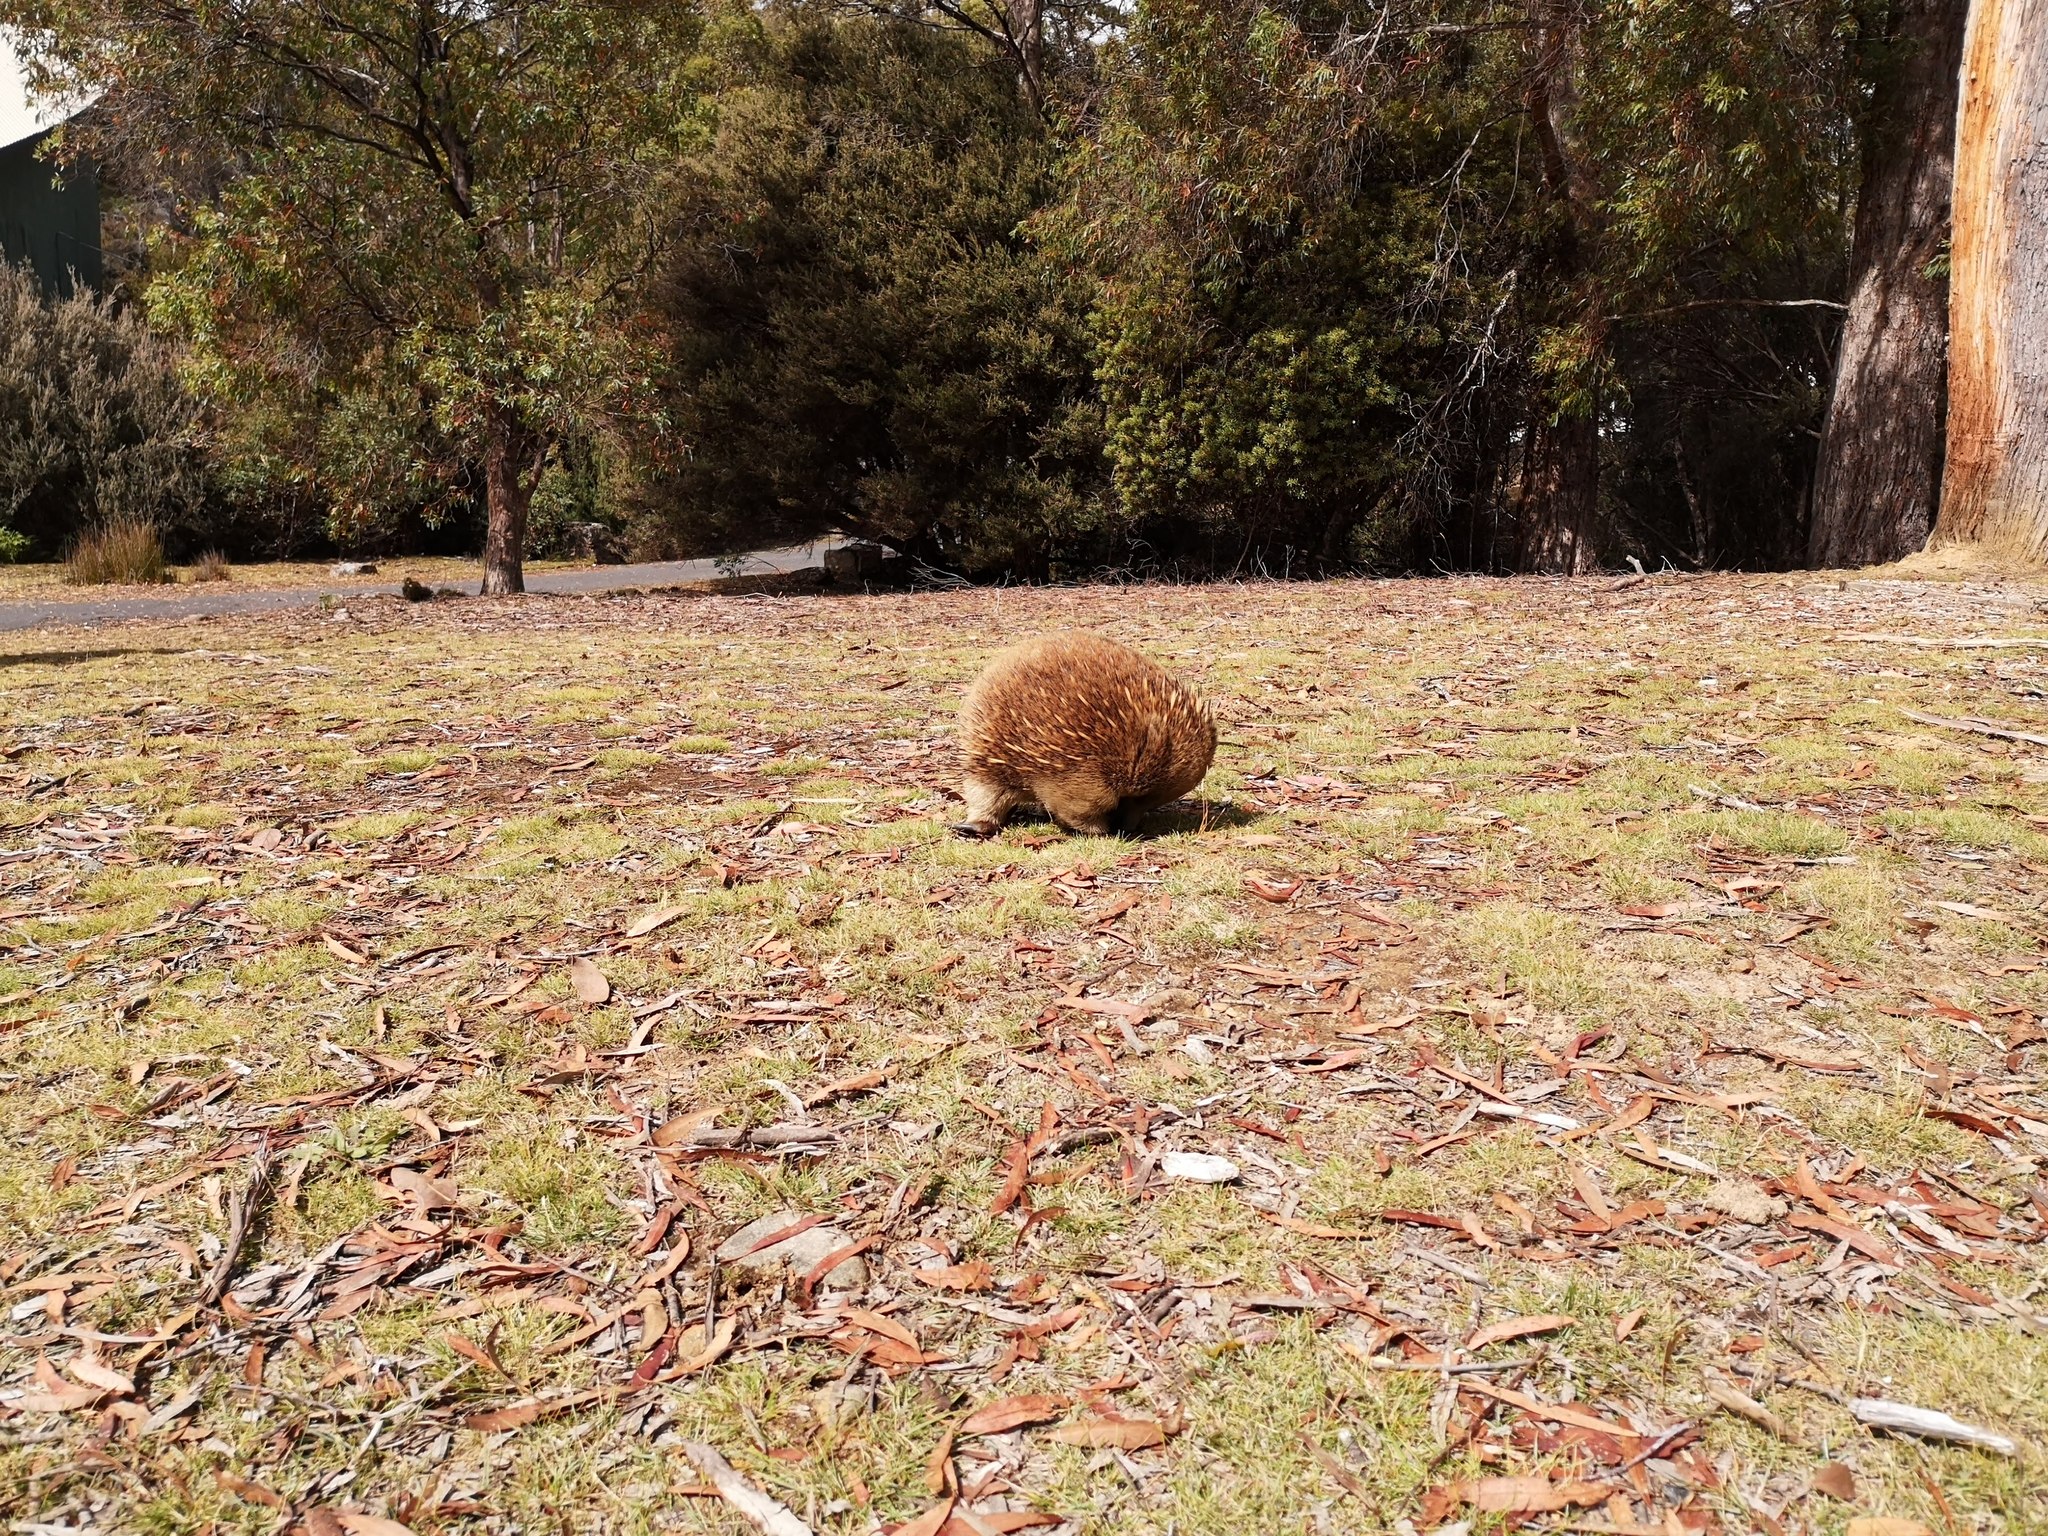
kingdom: Animalia
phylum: Chordata
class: Mammalia
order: Monotremata
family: Tachyglossidae
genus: Tachyglossus
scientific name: Tachyglossus aculeatus
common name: Short-beaked echidna
